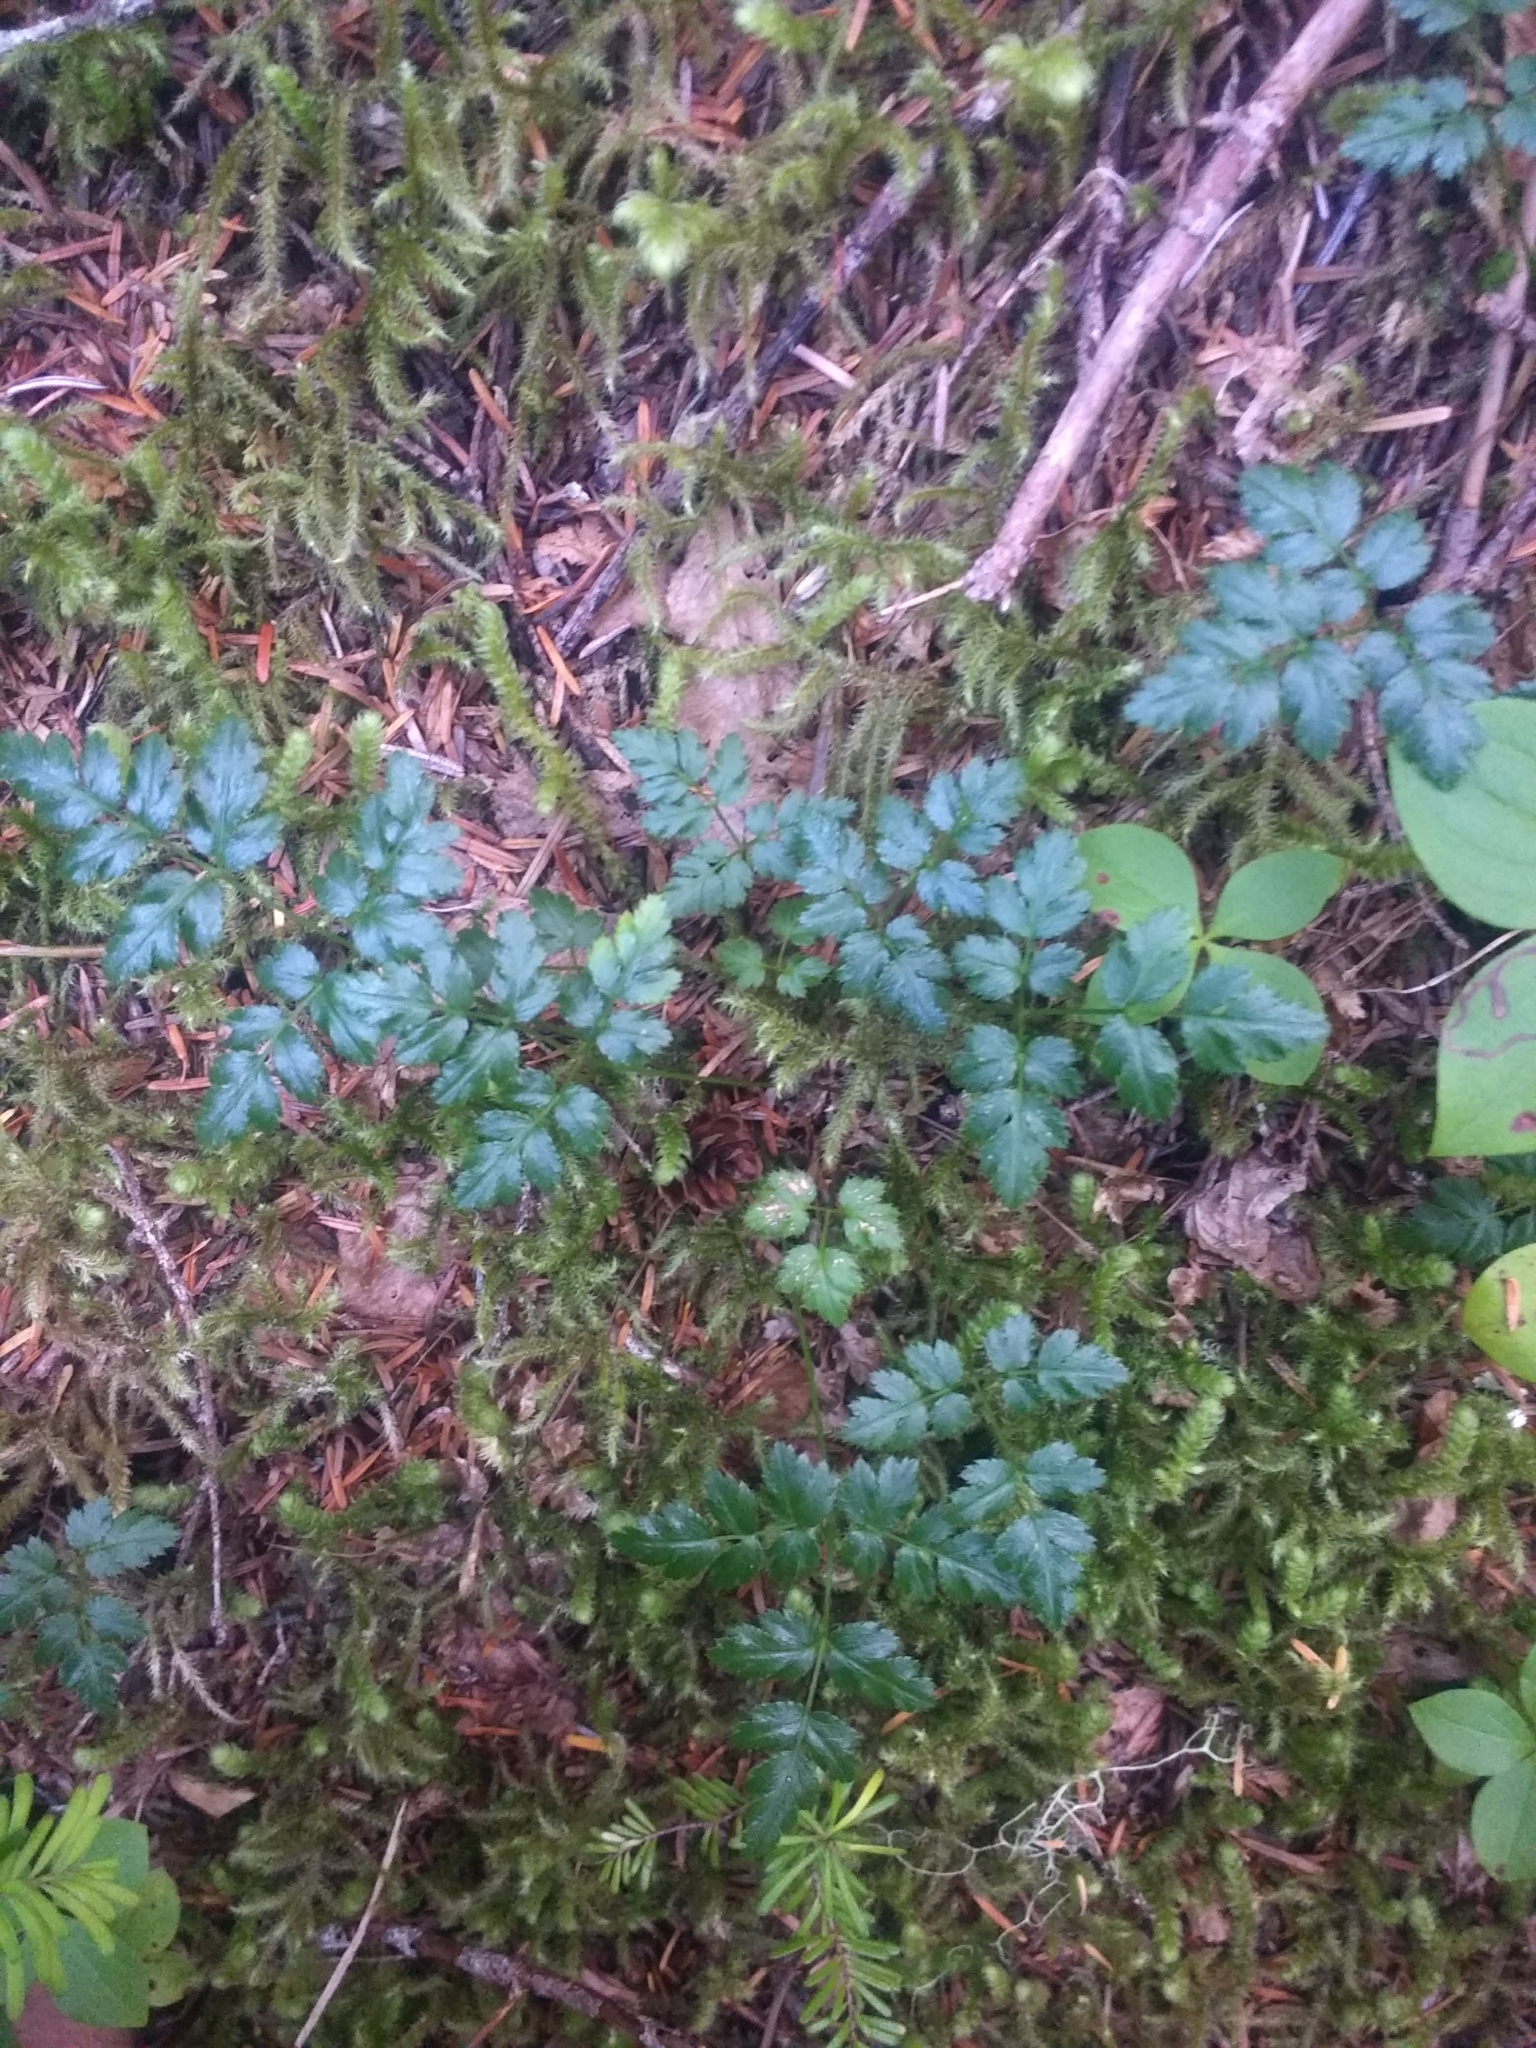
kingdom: Plantae
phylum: Tracheophyta
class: Magnoliopsida
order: Ranunculales
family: Ranunculaceae
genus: Coptis
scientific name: Coptis aspleniifolia
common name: Fern-leaved goldthread
